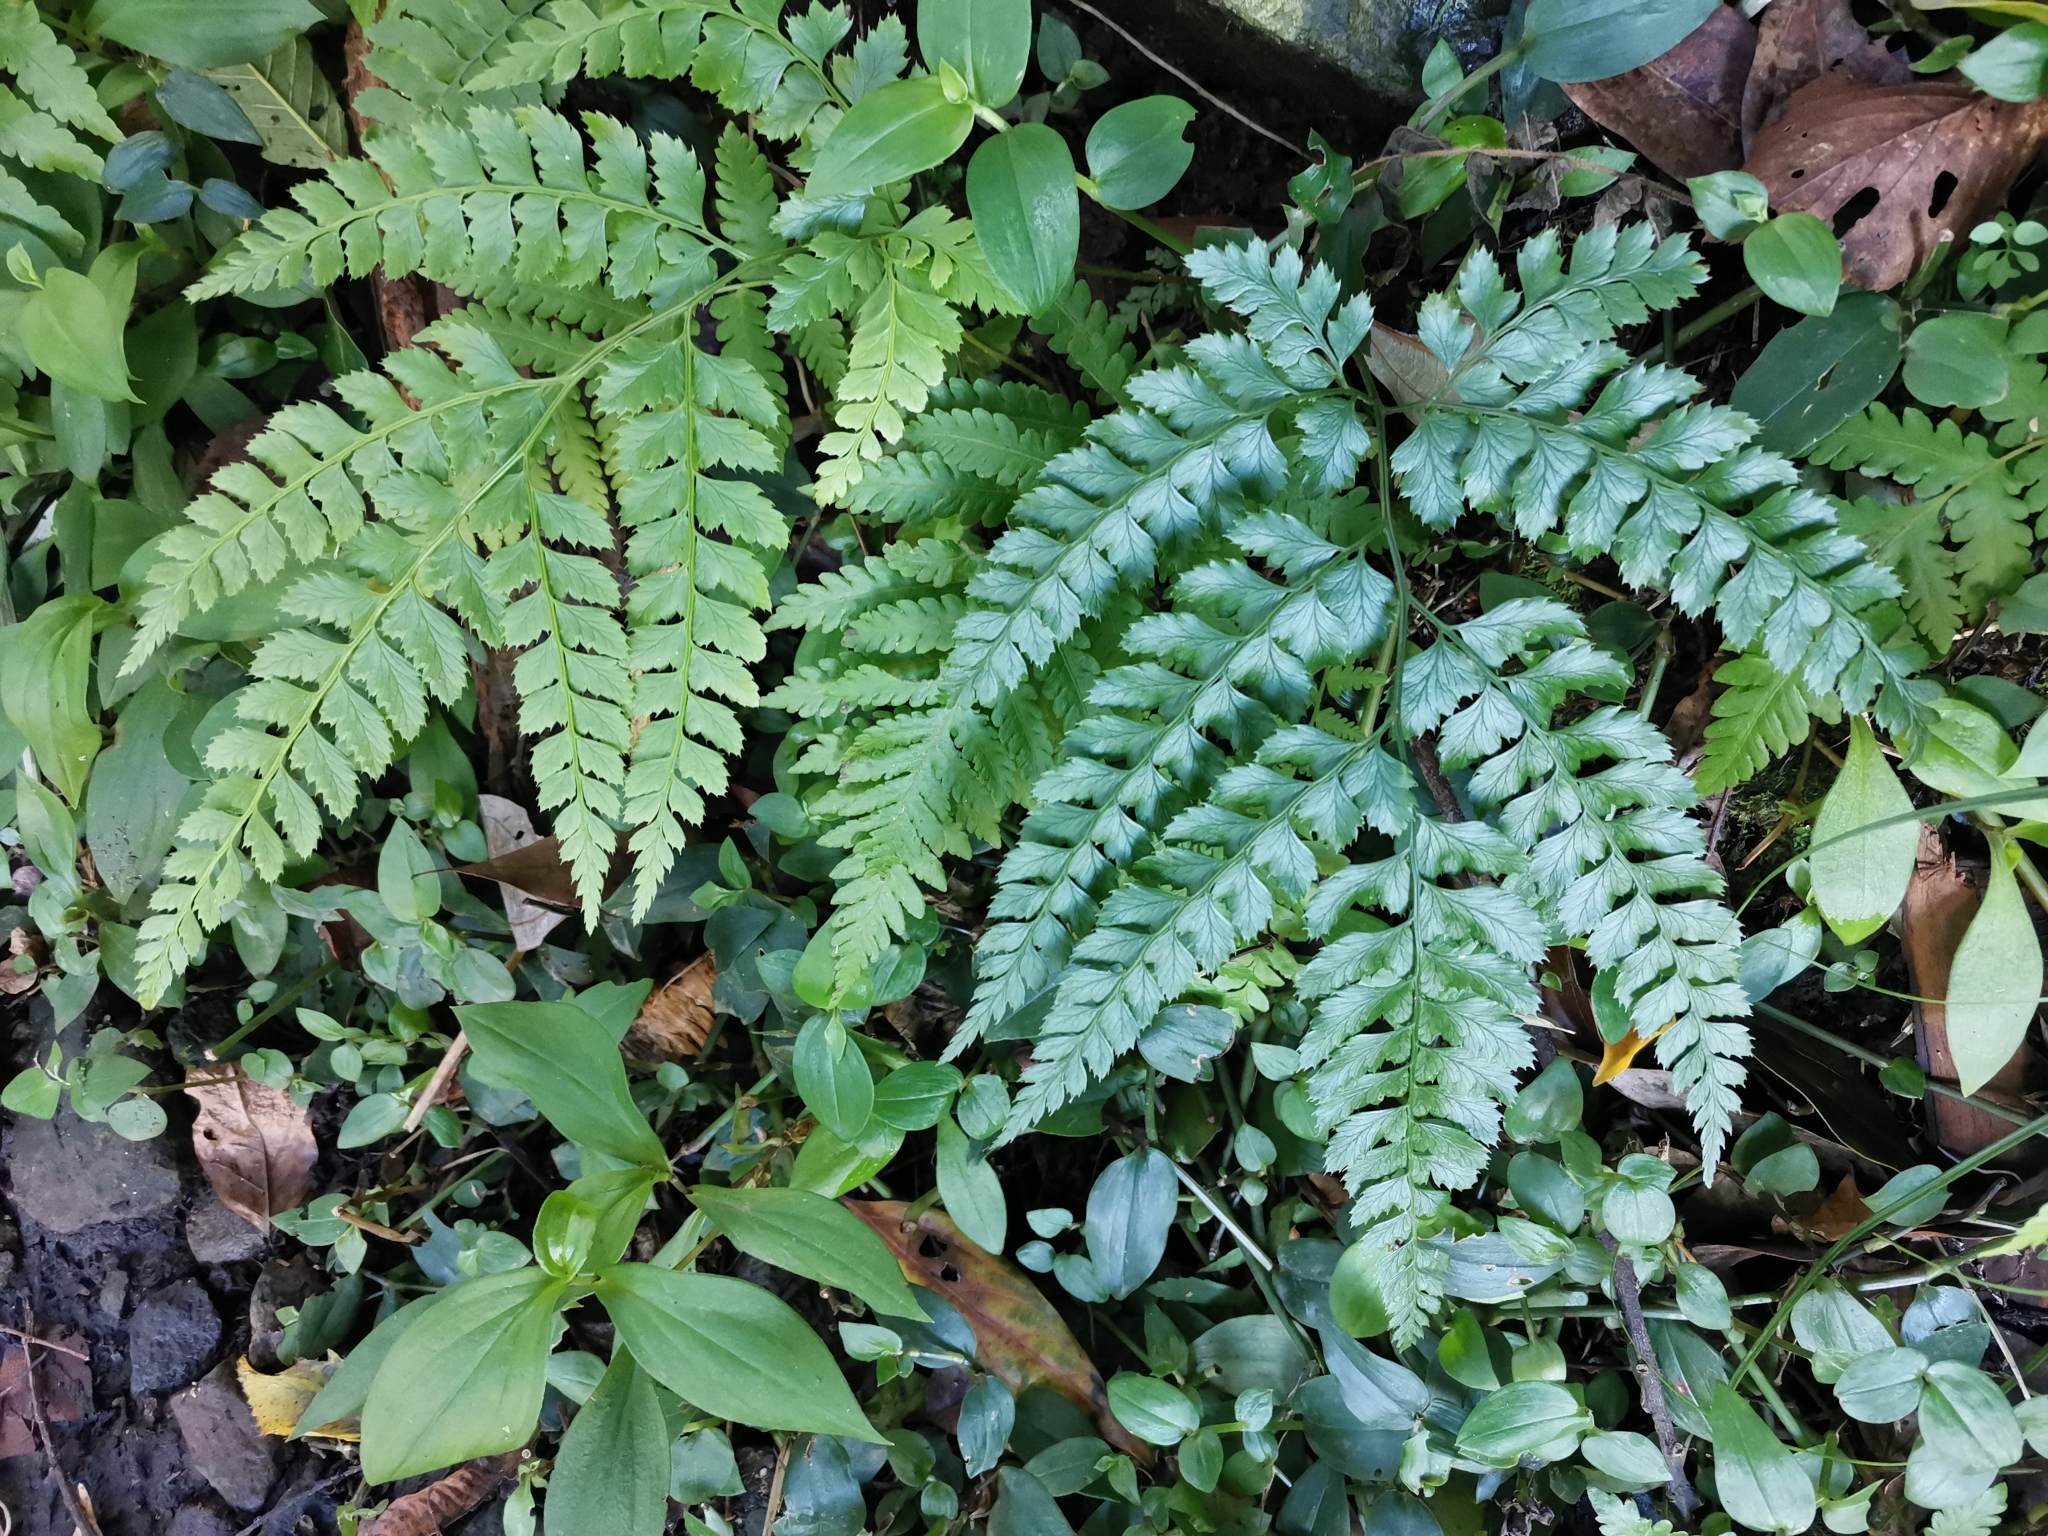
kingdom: Plantae
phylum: Tracheophyta
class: Polypodiopsida
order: Polypodiales
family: Dryopteridaceae
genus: Arachniodes
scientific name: Arachniodes rhomboidea
